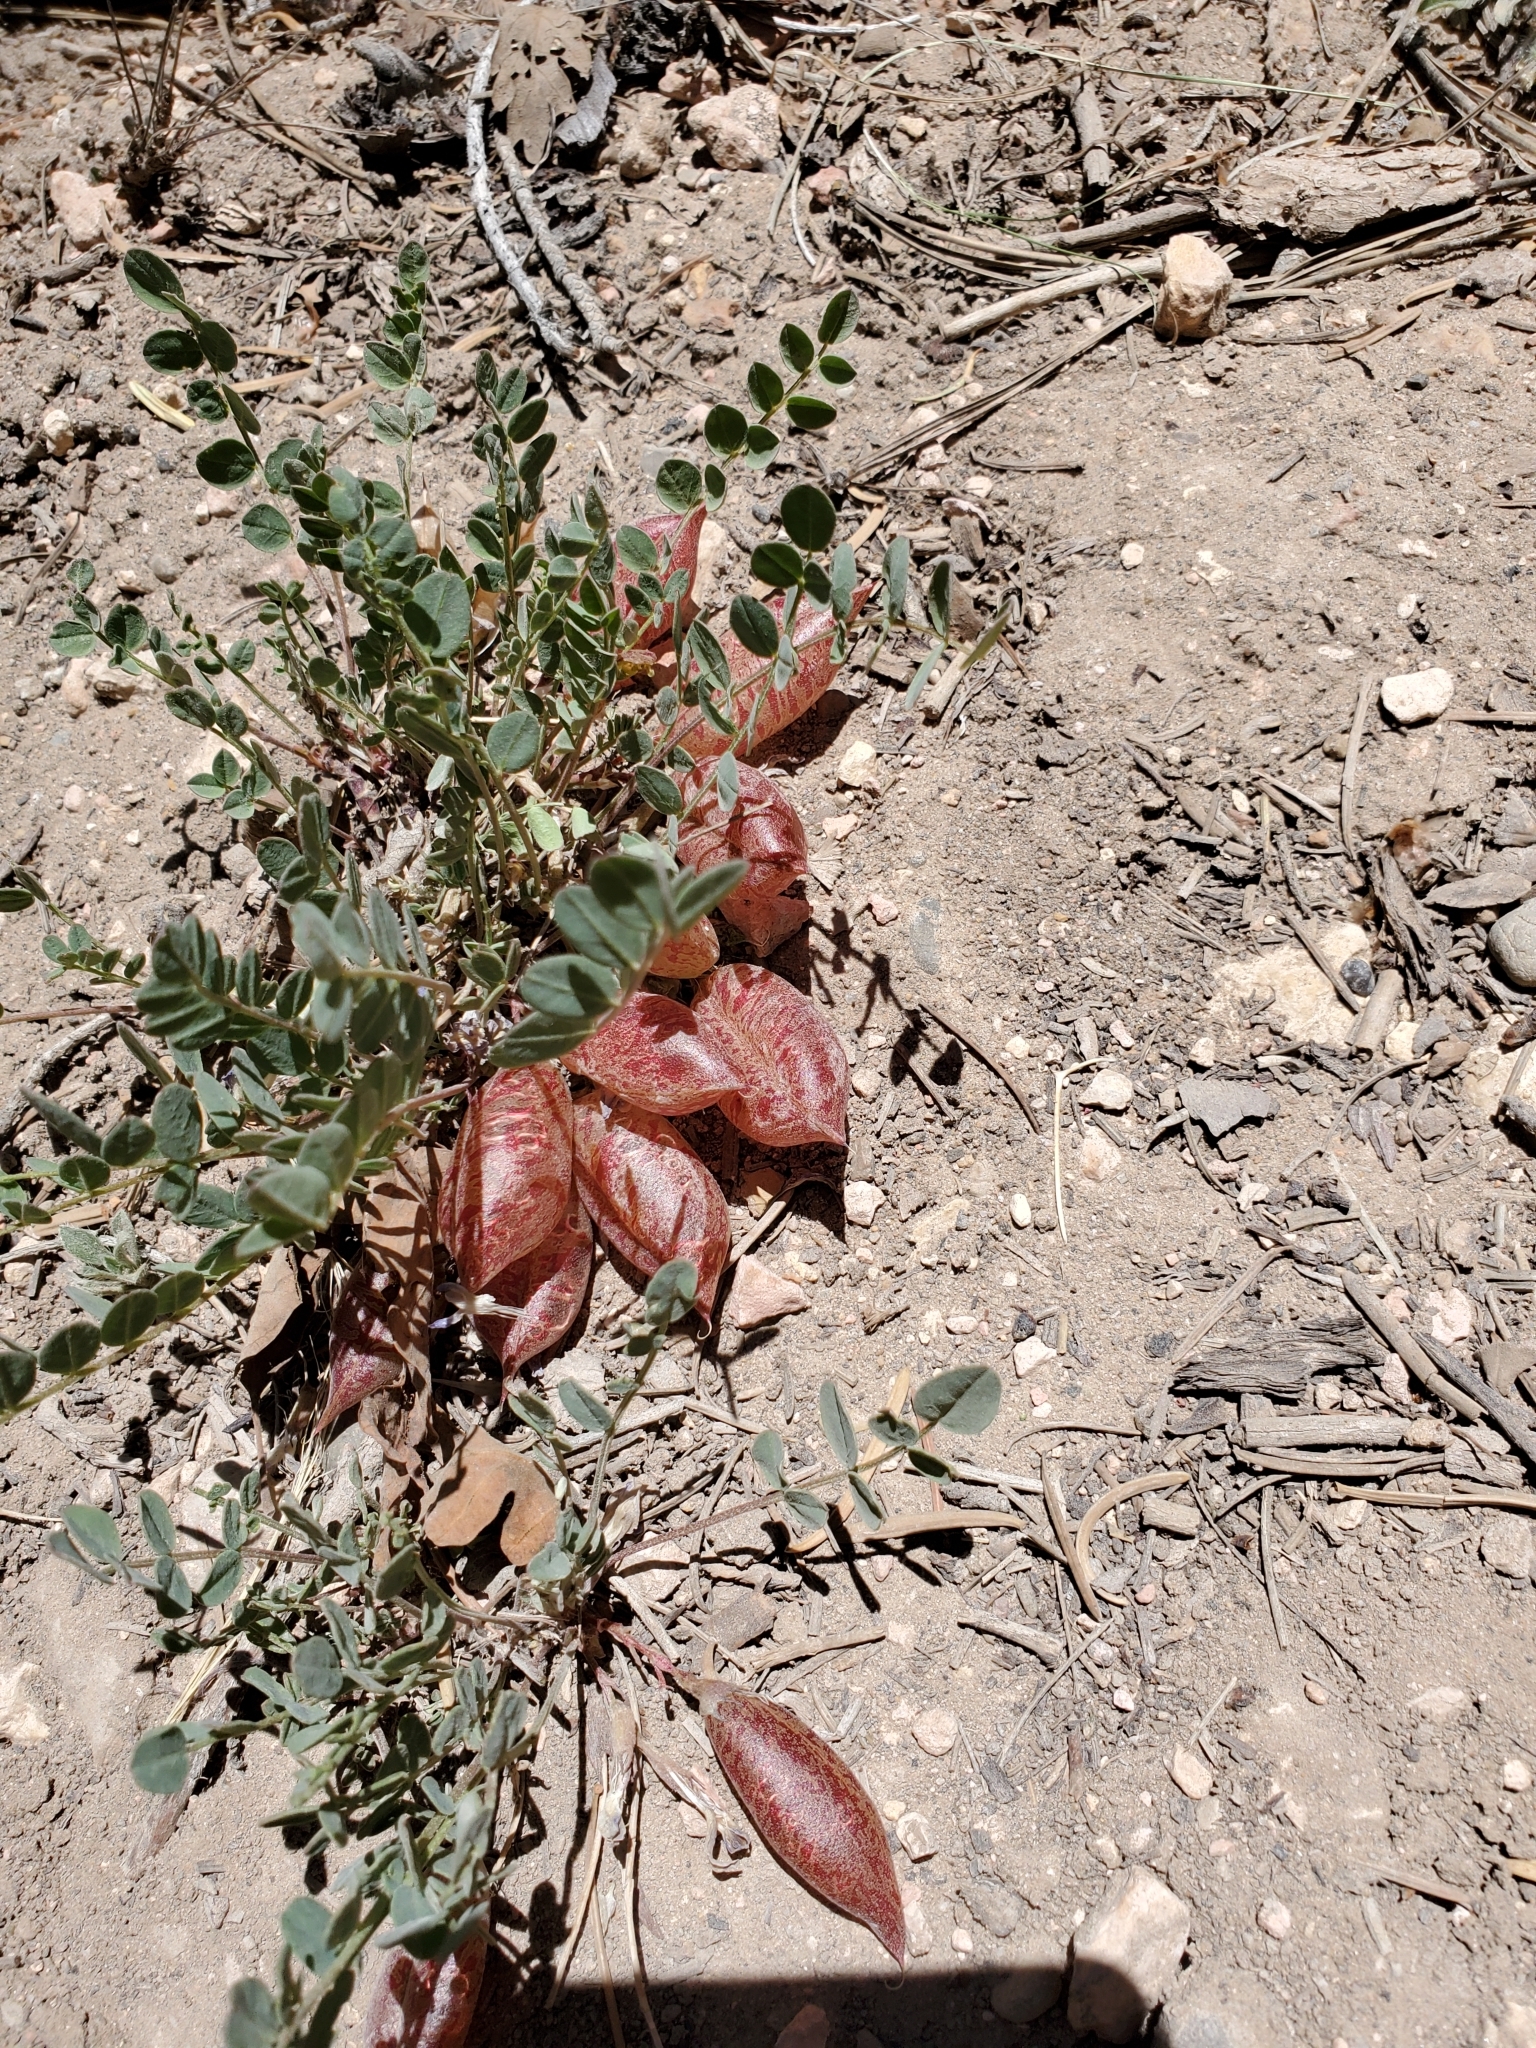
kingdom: Plantae
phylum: Tracheophyta
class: Magnoliopsida
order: Fabales
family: Fabaceae
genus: Astragalus
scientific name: Astragalus megacarpus
